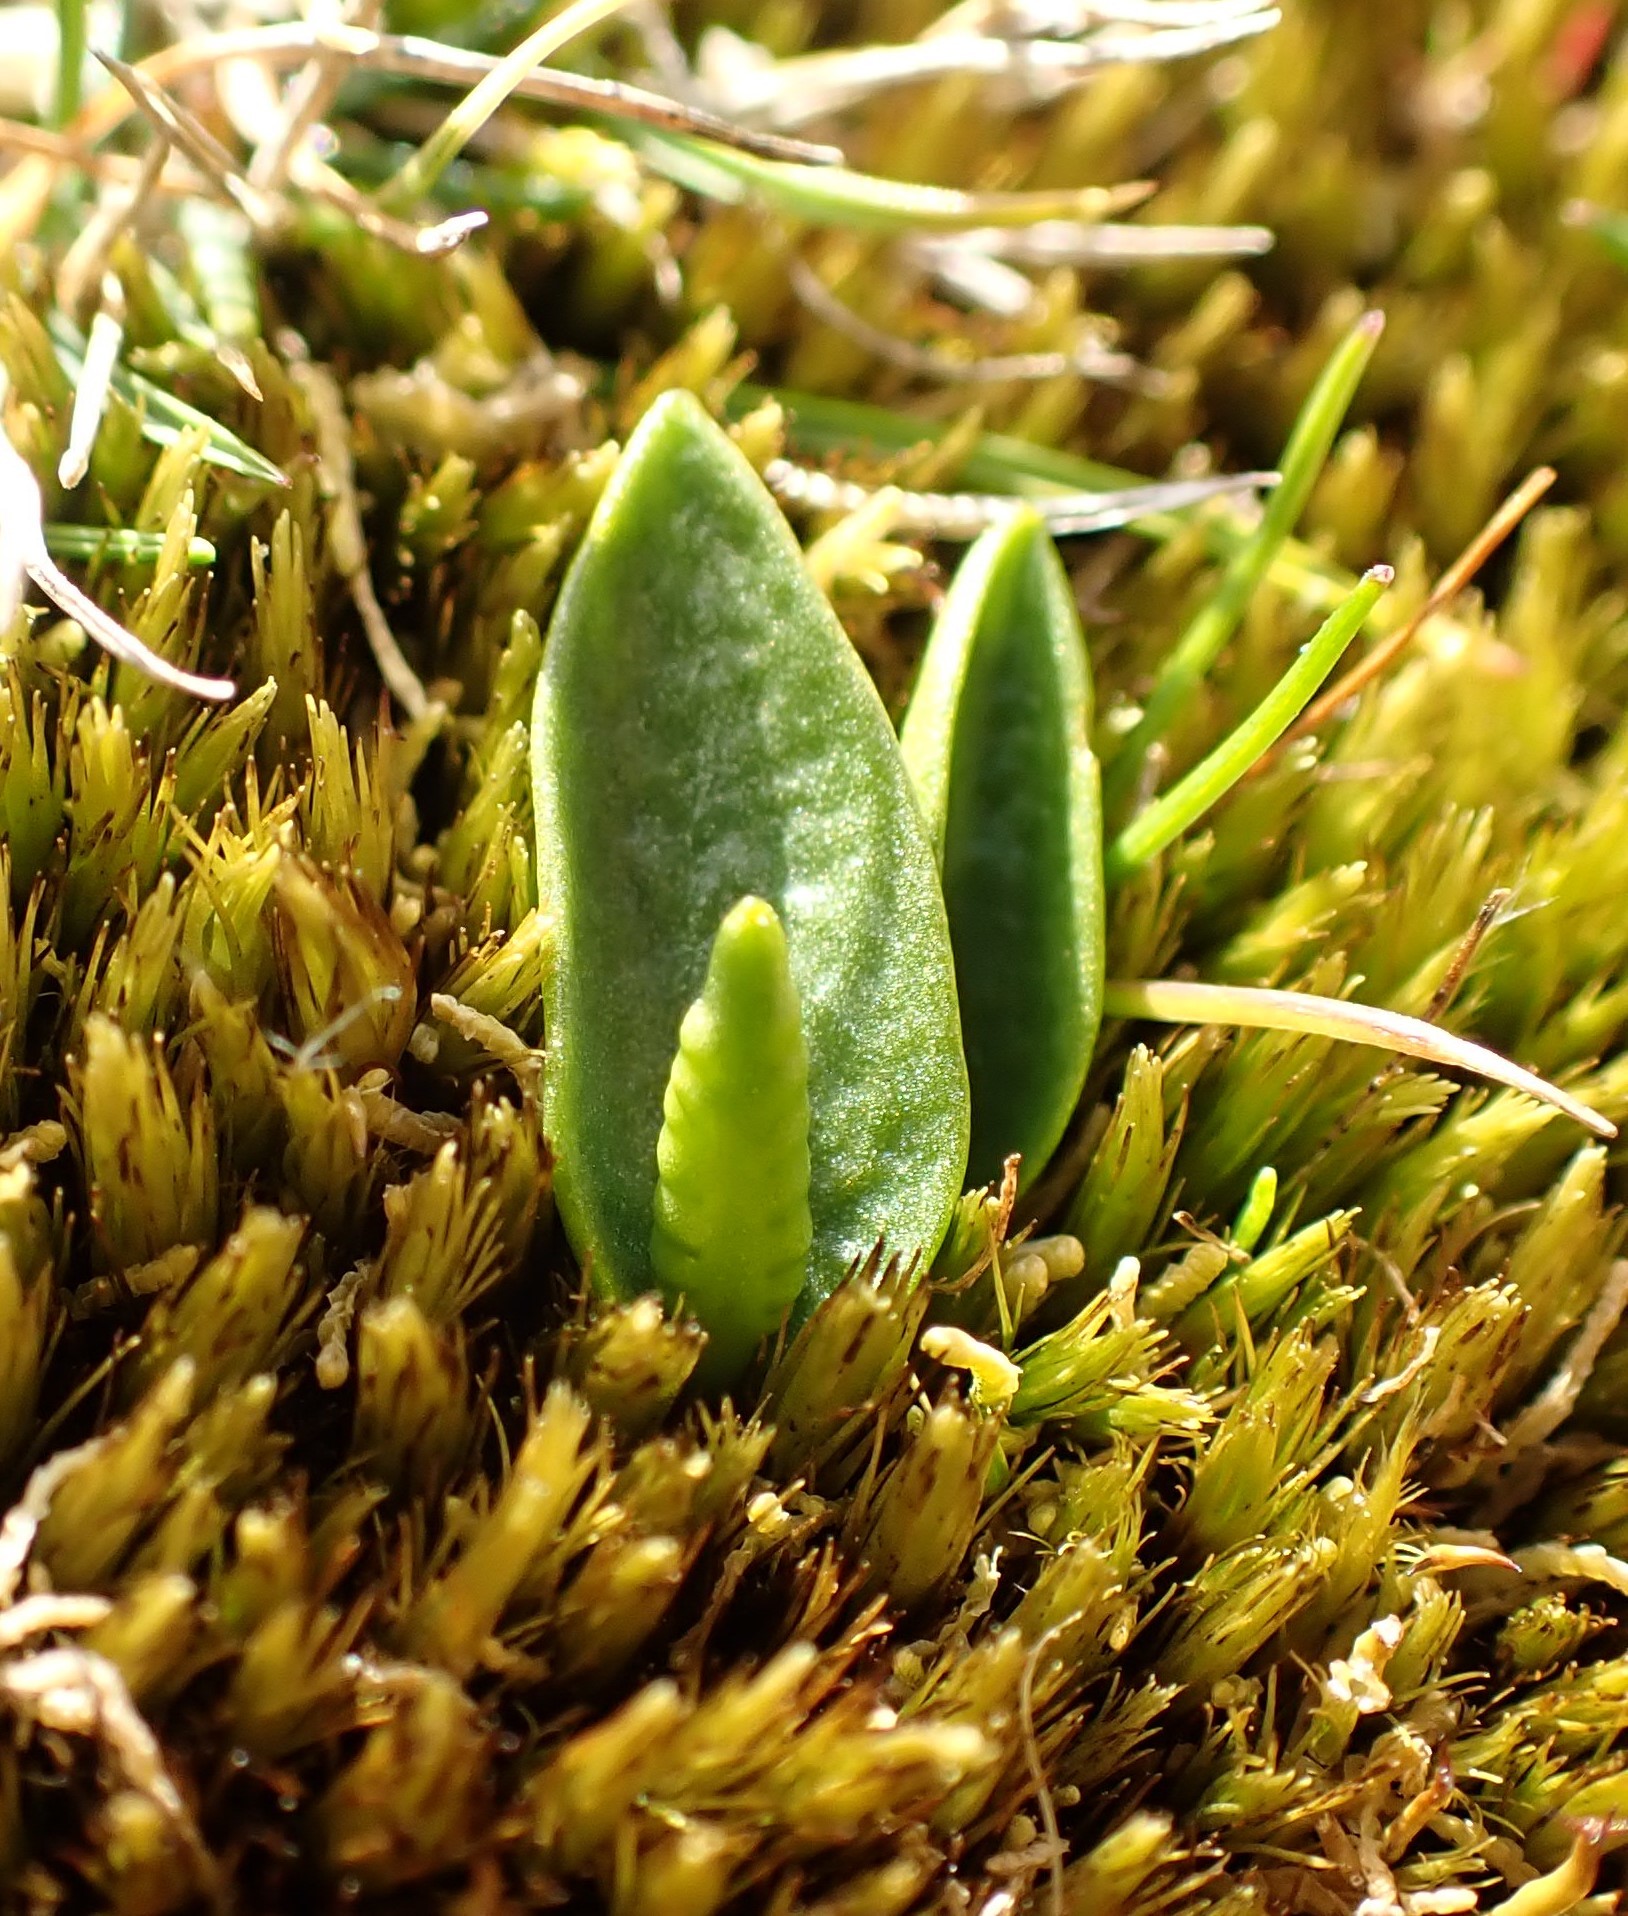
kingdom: Plantae
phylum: Tracheophyta
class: Polypodiopsida
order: Ophioglossales
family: Ophioglossaceae
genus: Ophioglossum
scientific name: Ophioglossum lusitanicum
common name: Least adder's-tongue
